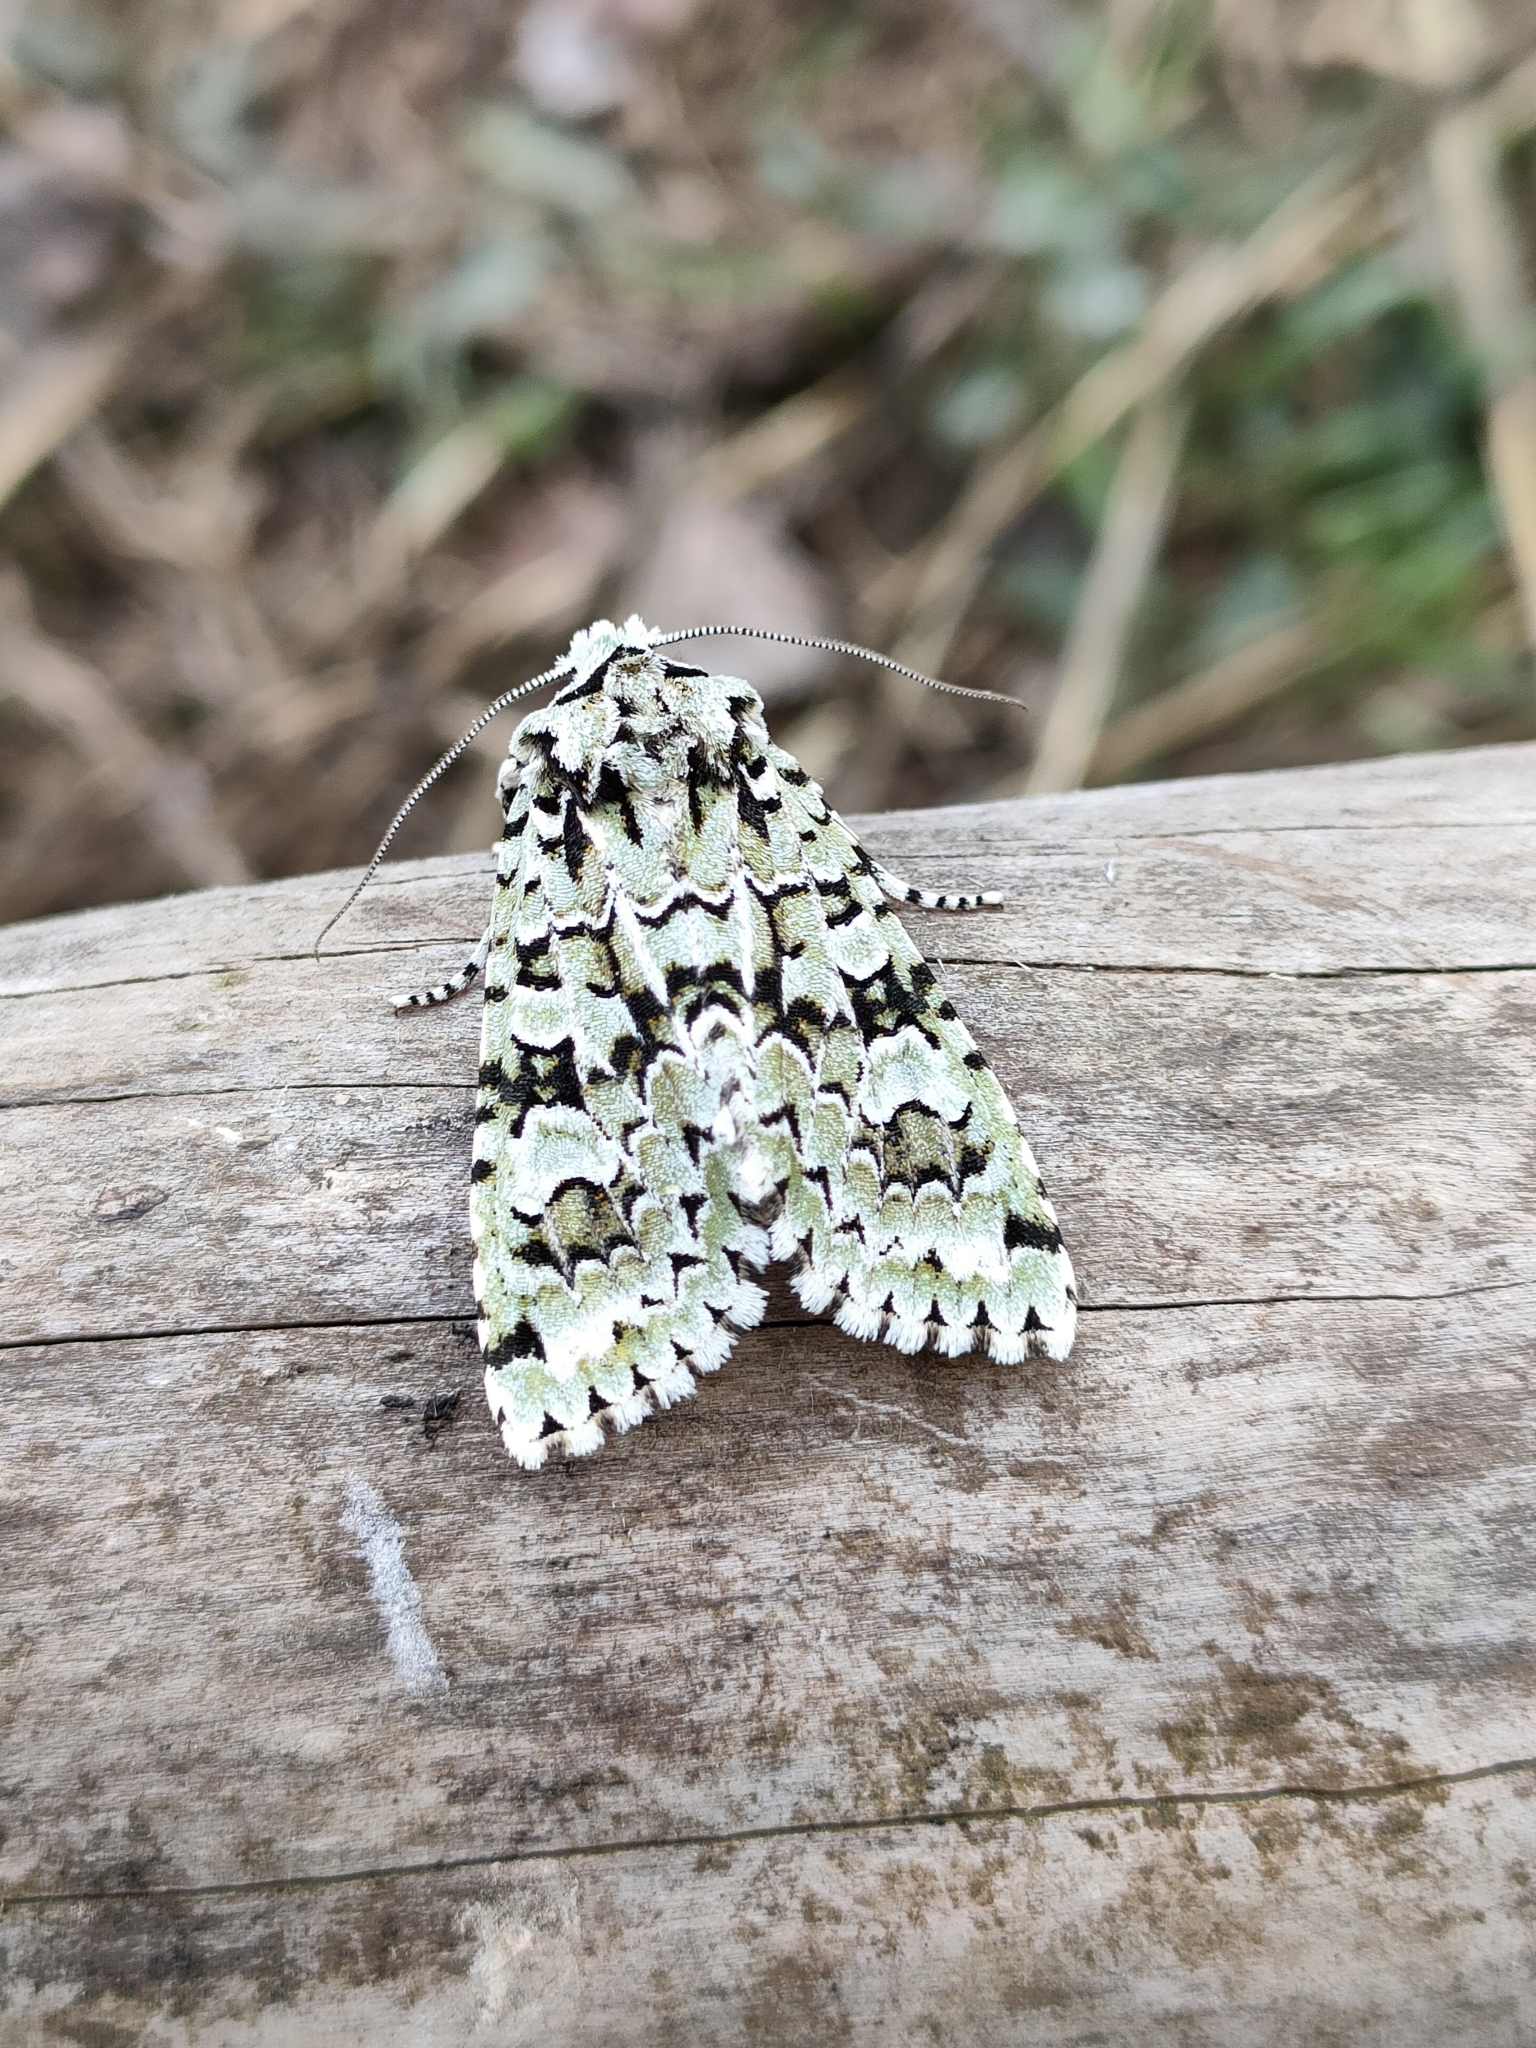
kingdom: Animalia
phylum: Arthropoda
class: Insecta
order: Lepidoptera
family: Noctuidae
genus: Griposia
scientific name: Griposia aprilina
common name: Merveille du jour
